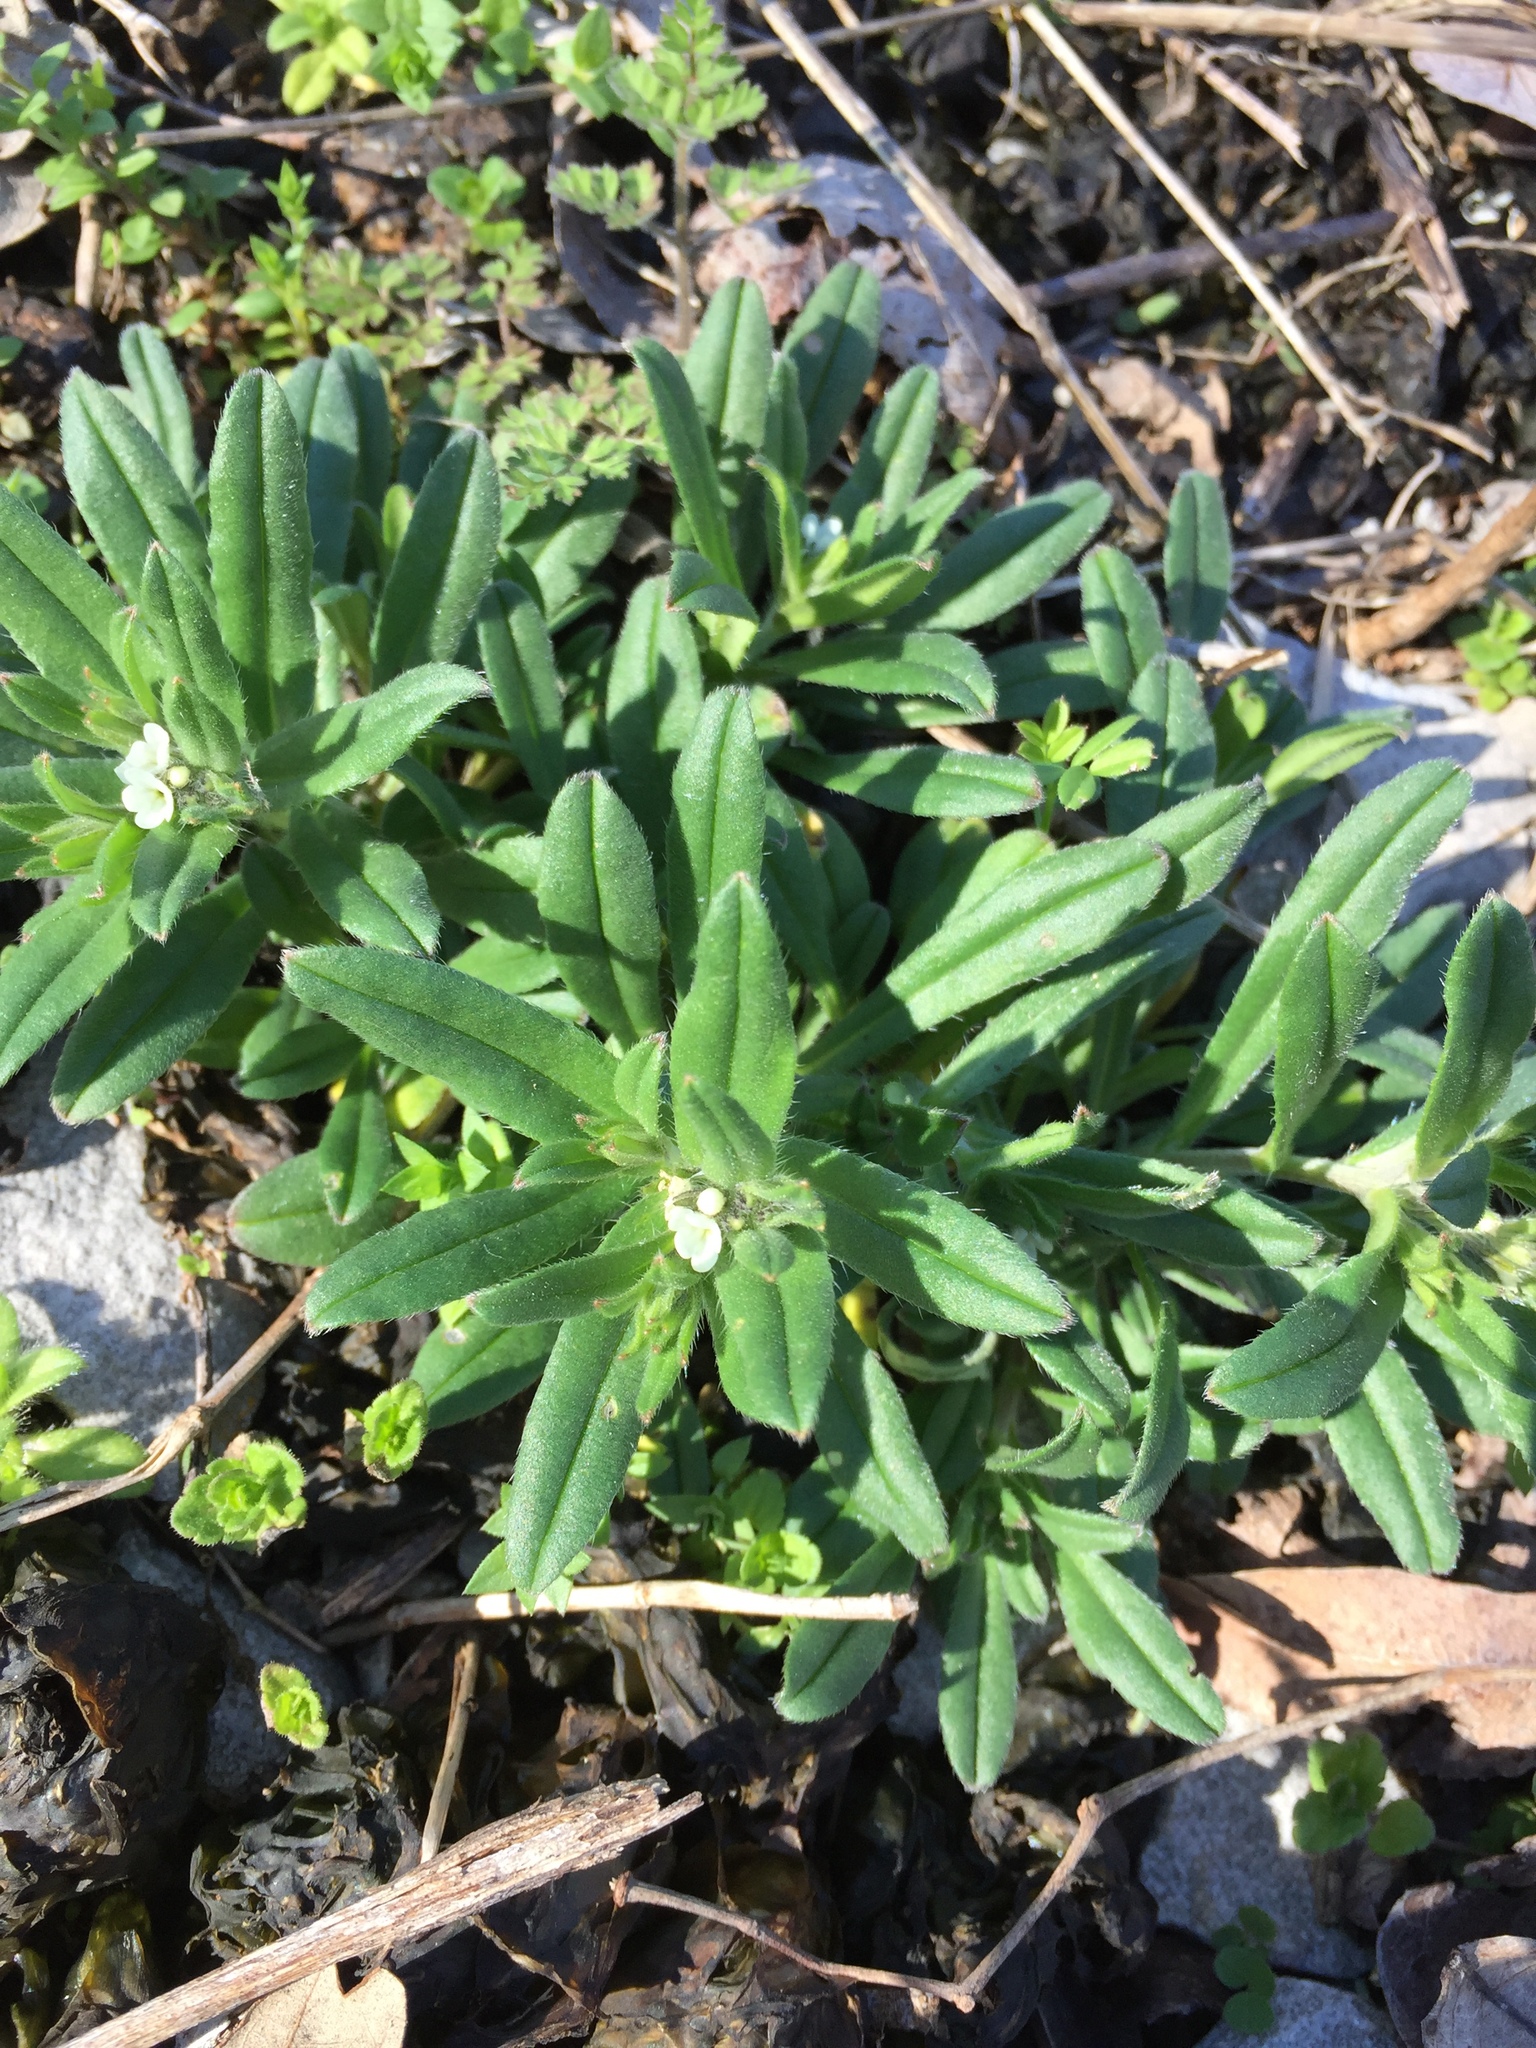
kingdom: Plantae
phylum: Tracheophyta
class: Magnoliopsida
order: Boraginales
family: Boraginaceae
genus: Buglossoides
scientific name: Buglossoides arvensis
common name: Corn gromwell
